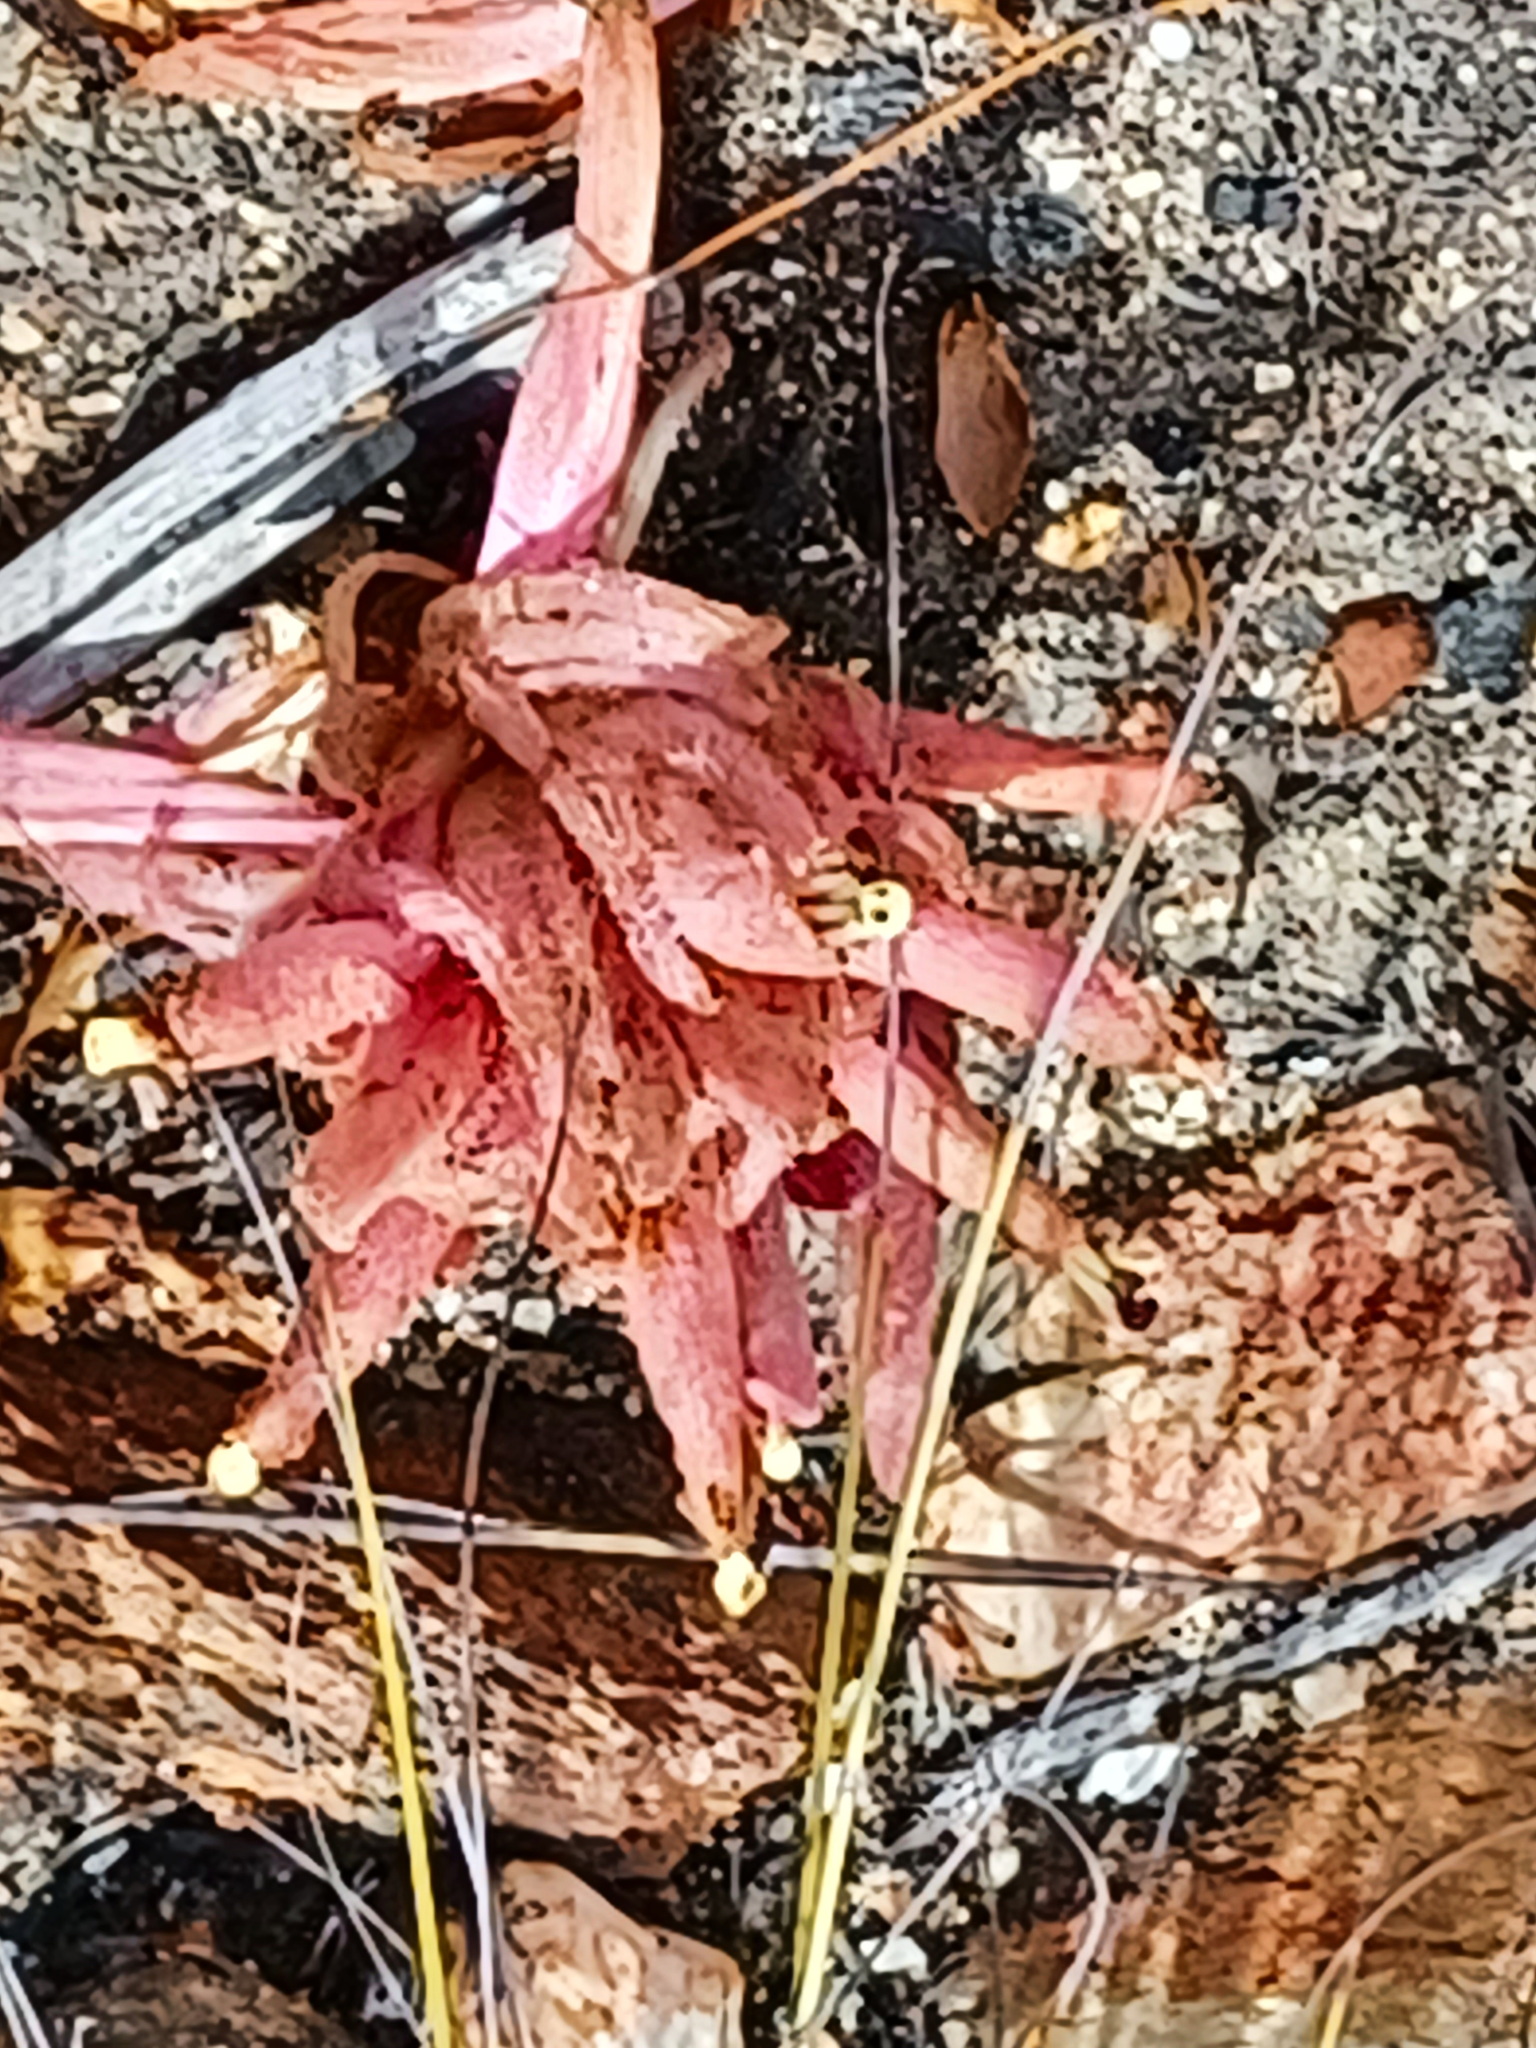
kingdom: Plantae
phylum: Tracheophyta
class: Magnoliopsida
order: Lamiales
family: Orobanchaceae
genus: Hyobanche
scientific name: Hyobanche sanguinea
